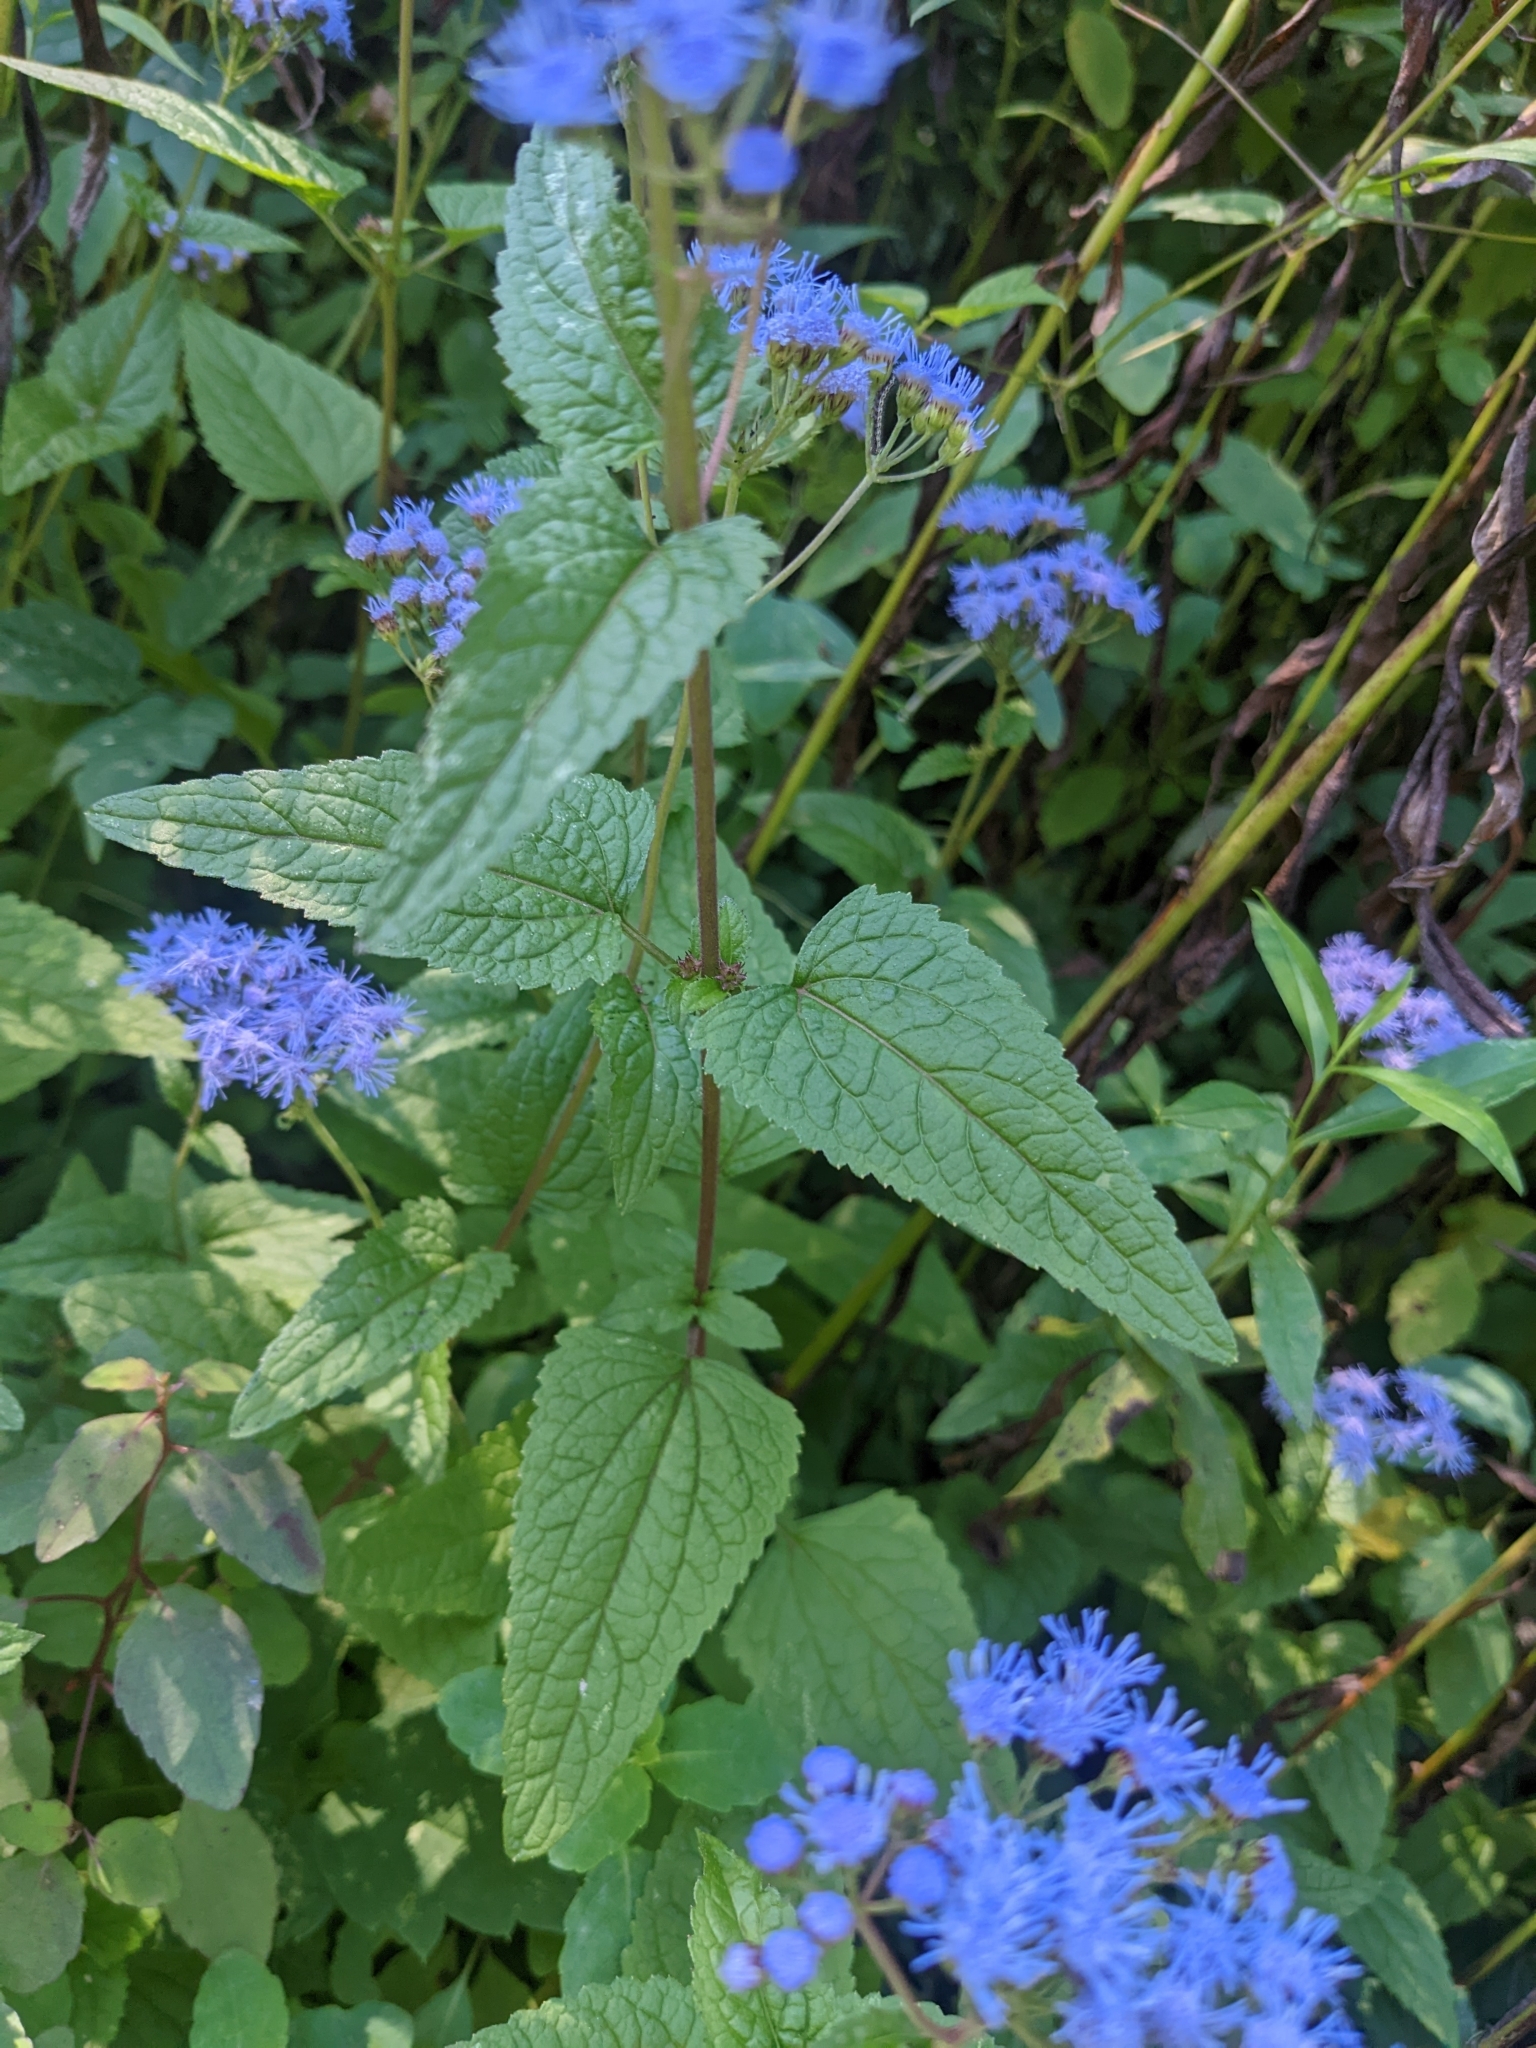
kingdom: Plantae
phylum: Tracheophyta
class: Magnoliopsida
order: Asterales
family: Asteraceae
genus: Conoclinium
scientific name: Conoclinium coelestinum
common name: Blue mistflower
